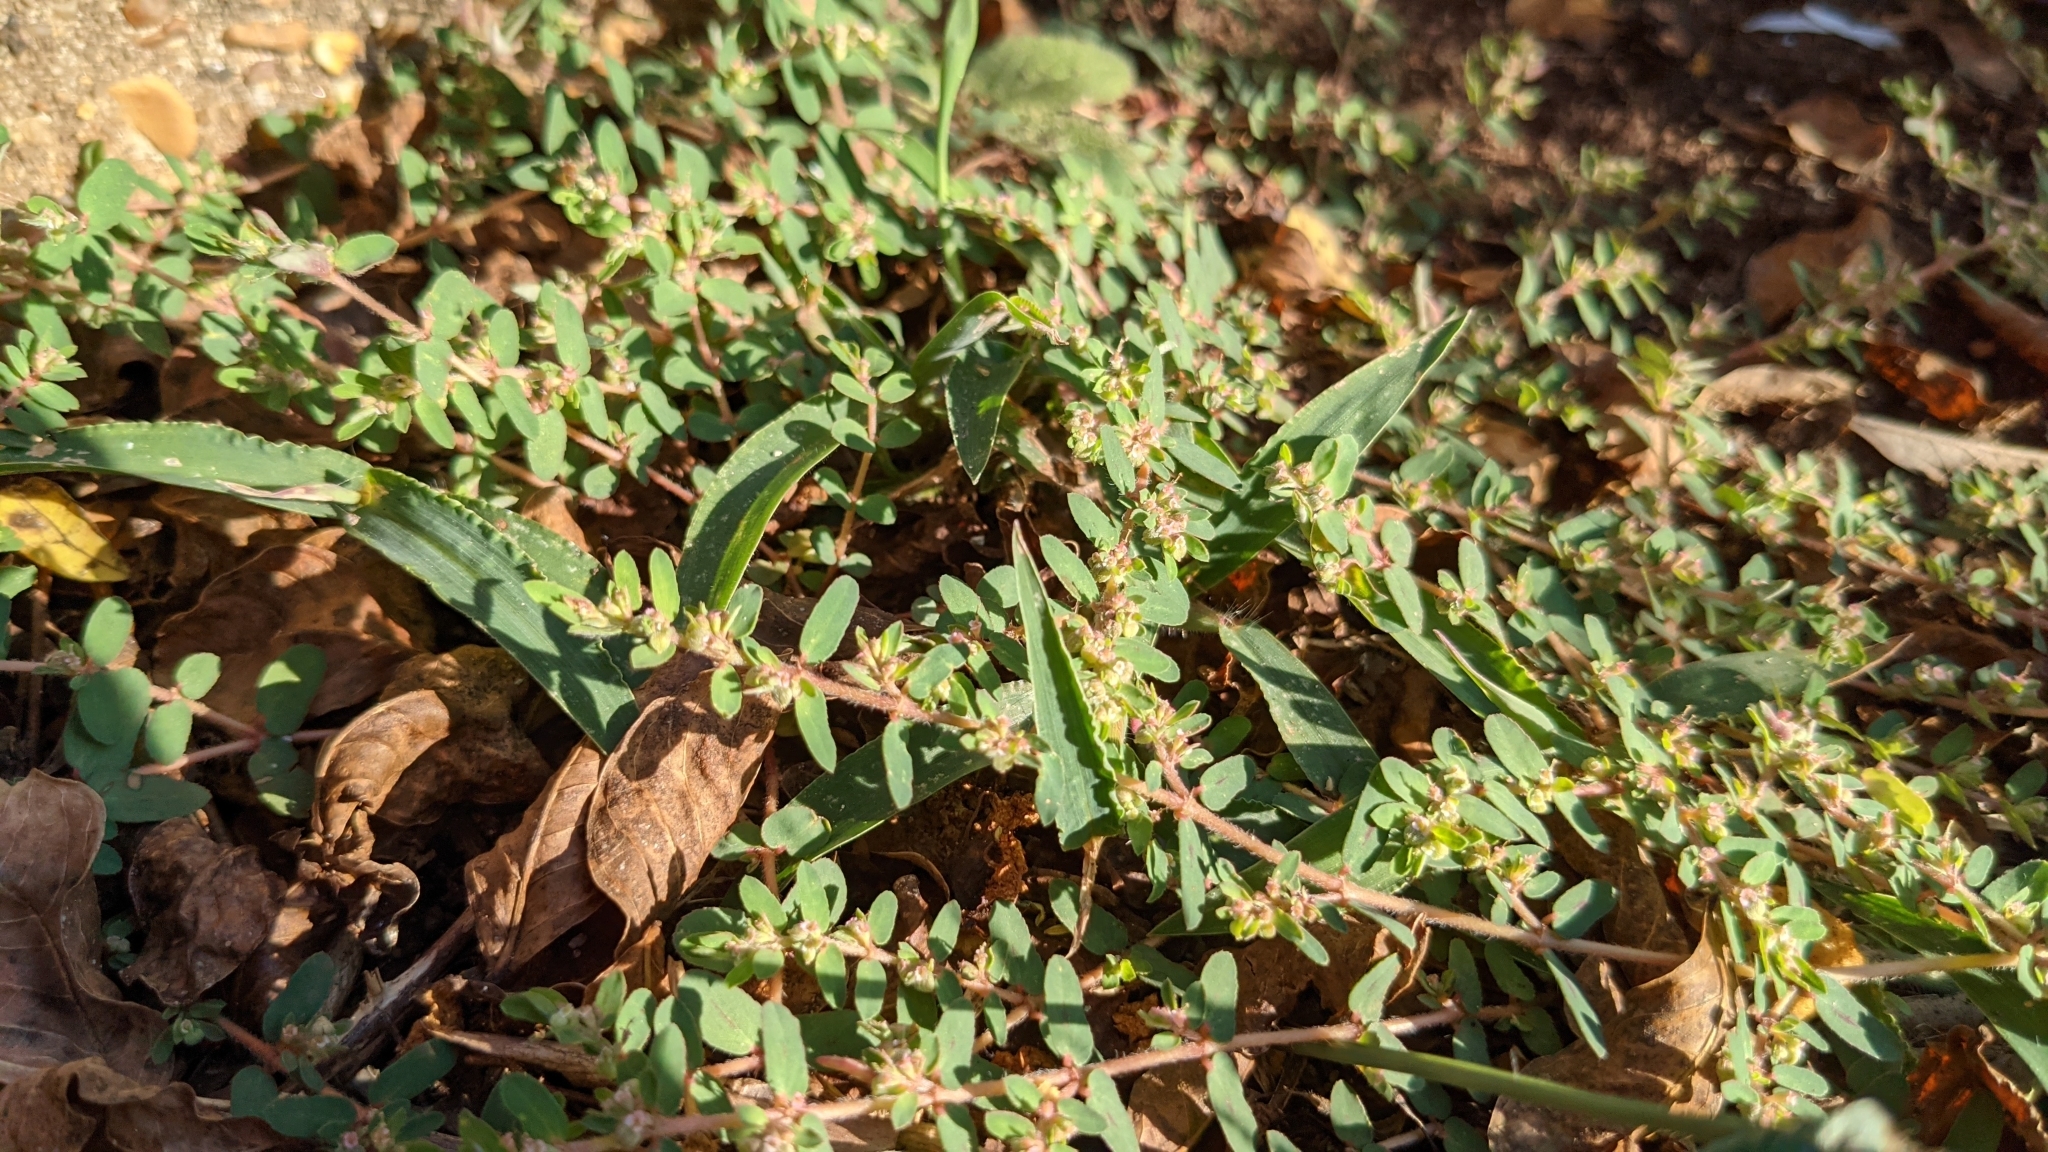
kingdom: Plantae
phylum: Tracheophyta
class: Magnoliopsida
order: Malpighiales
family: Euphorbiaceae
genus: Euphorbia
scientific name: Euphorbia maculata
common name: Spotted spurge
